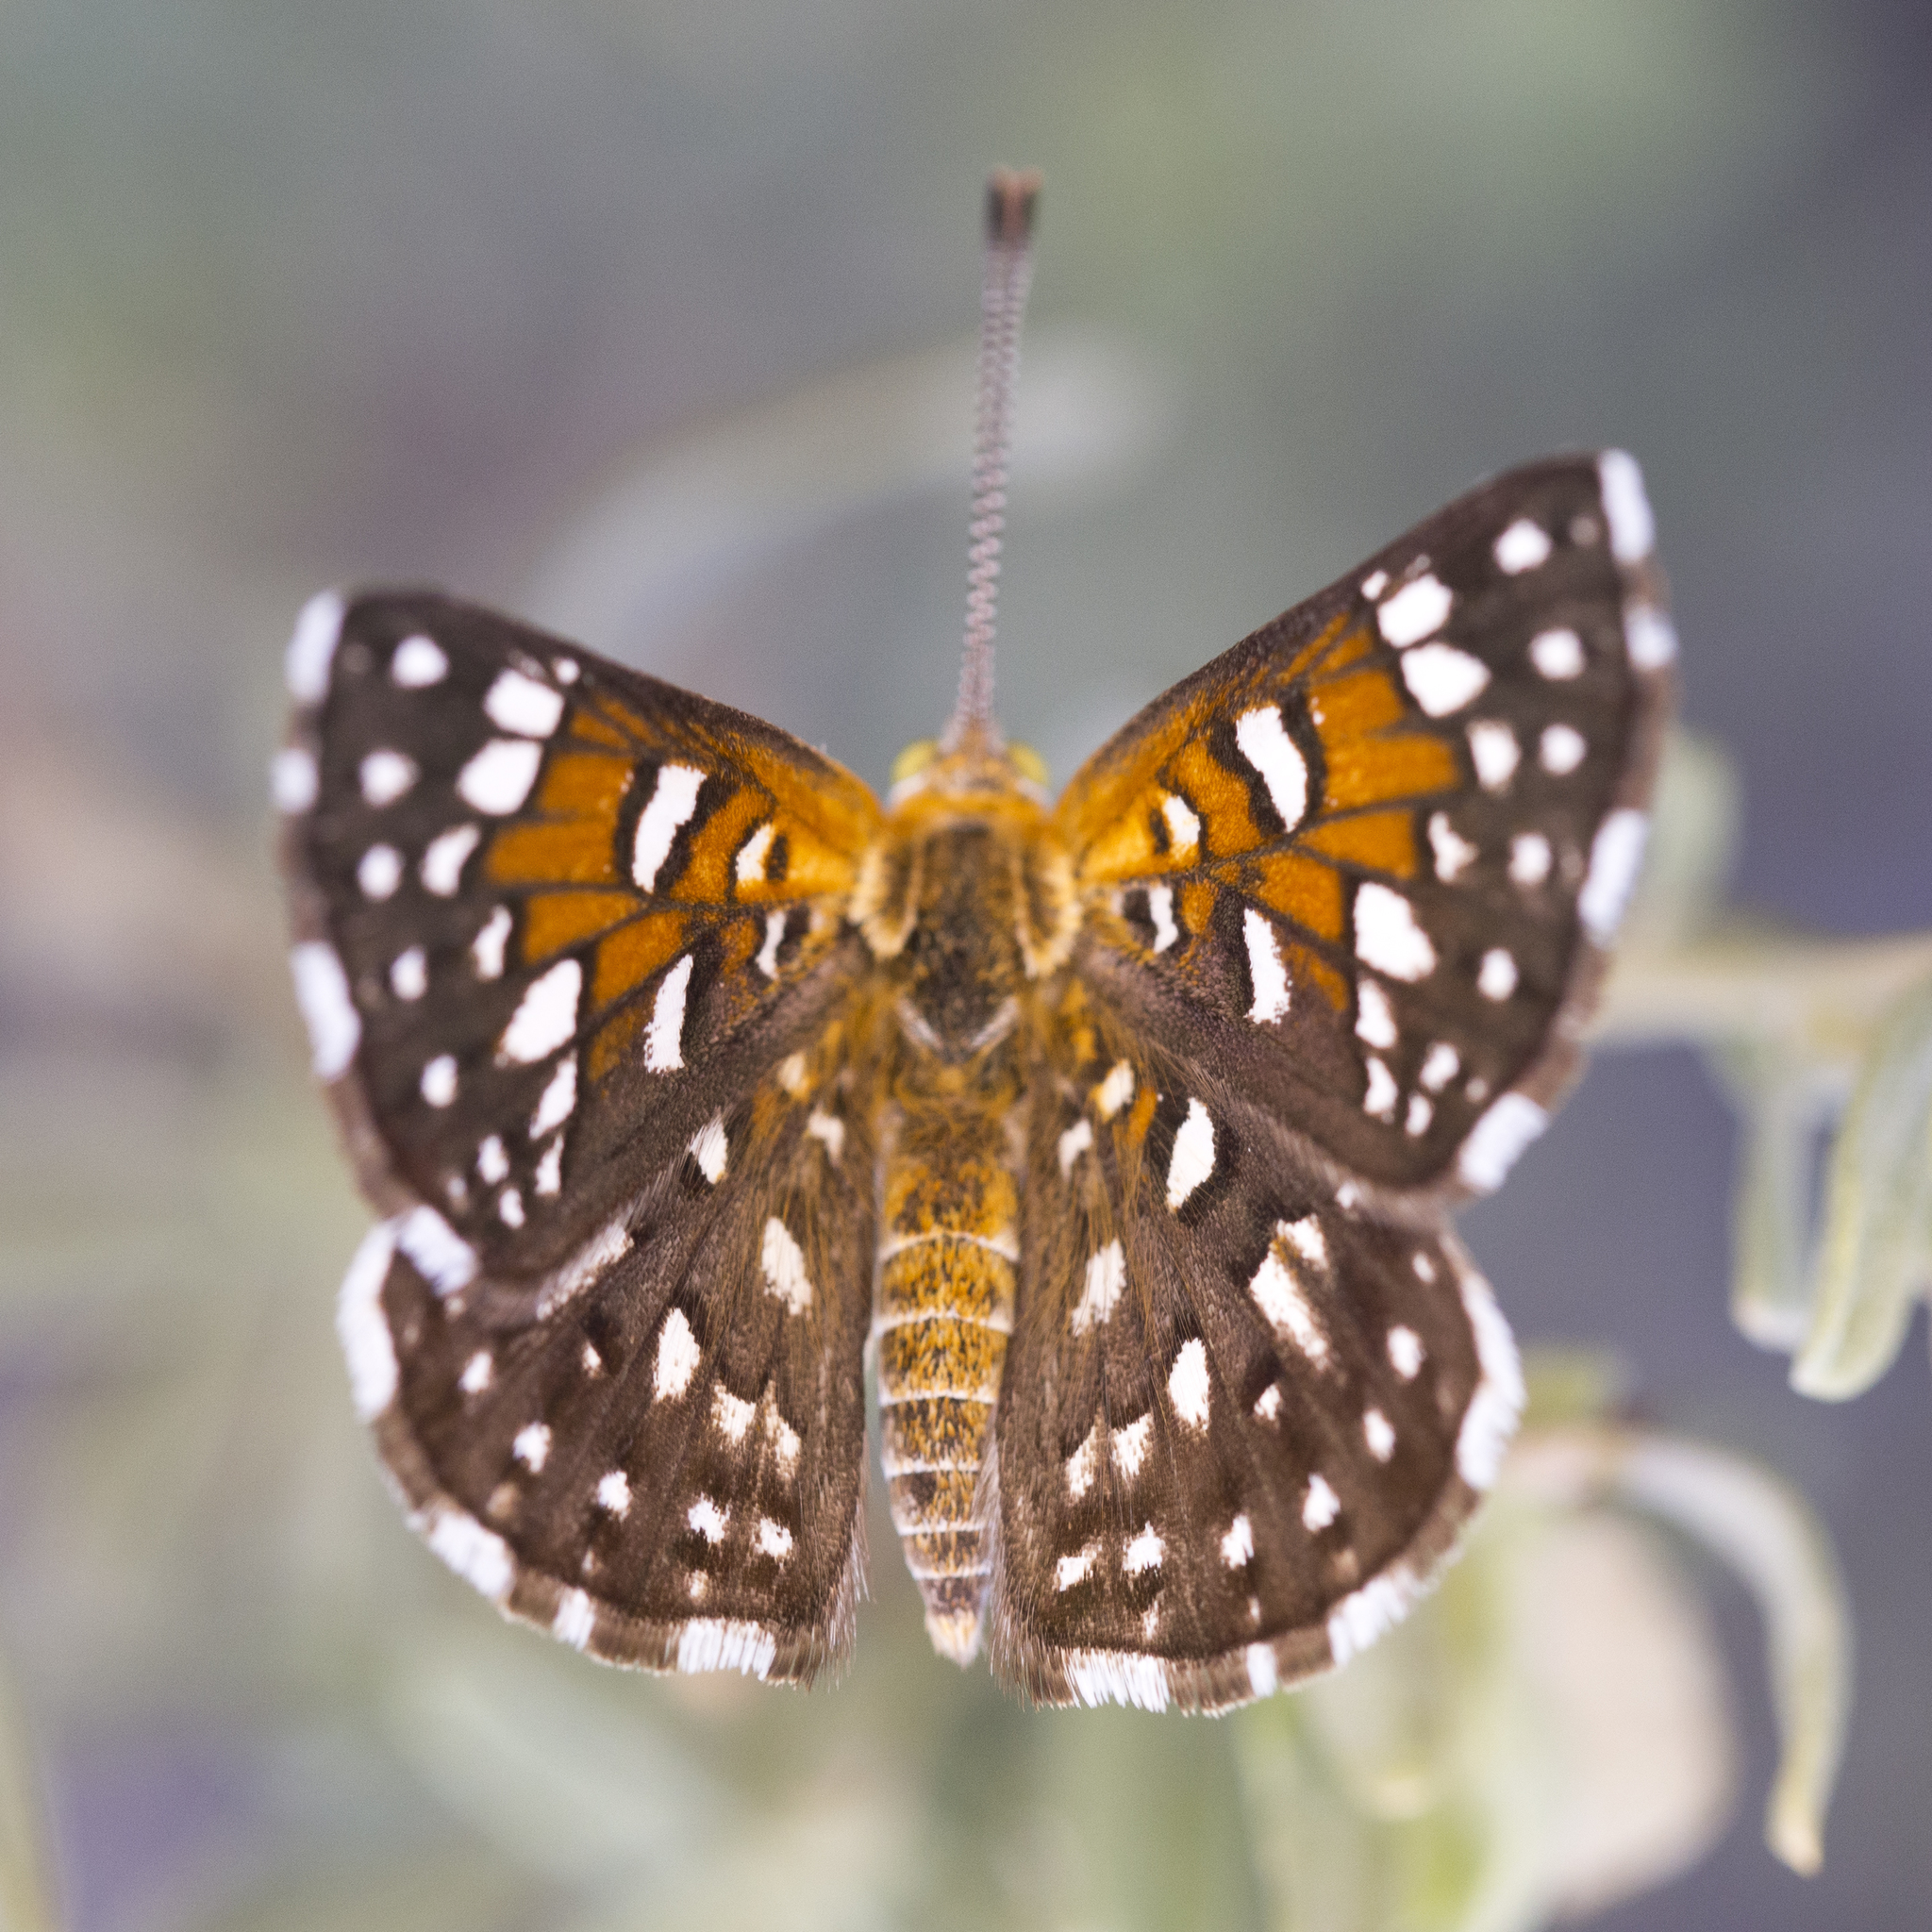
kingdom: Animalia
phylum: Arthropoda
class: Insecta
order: Lepidoptera
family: Riodinidae
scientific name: Riodinidae
